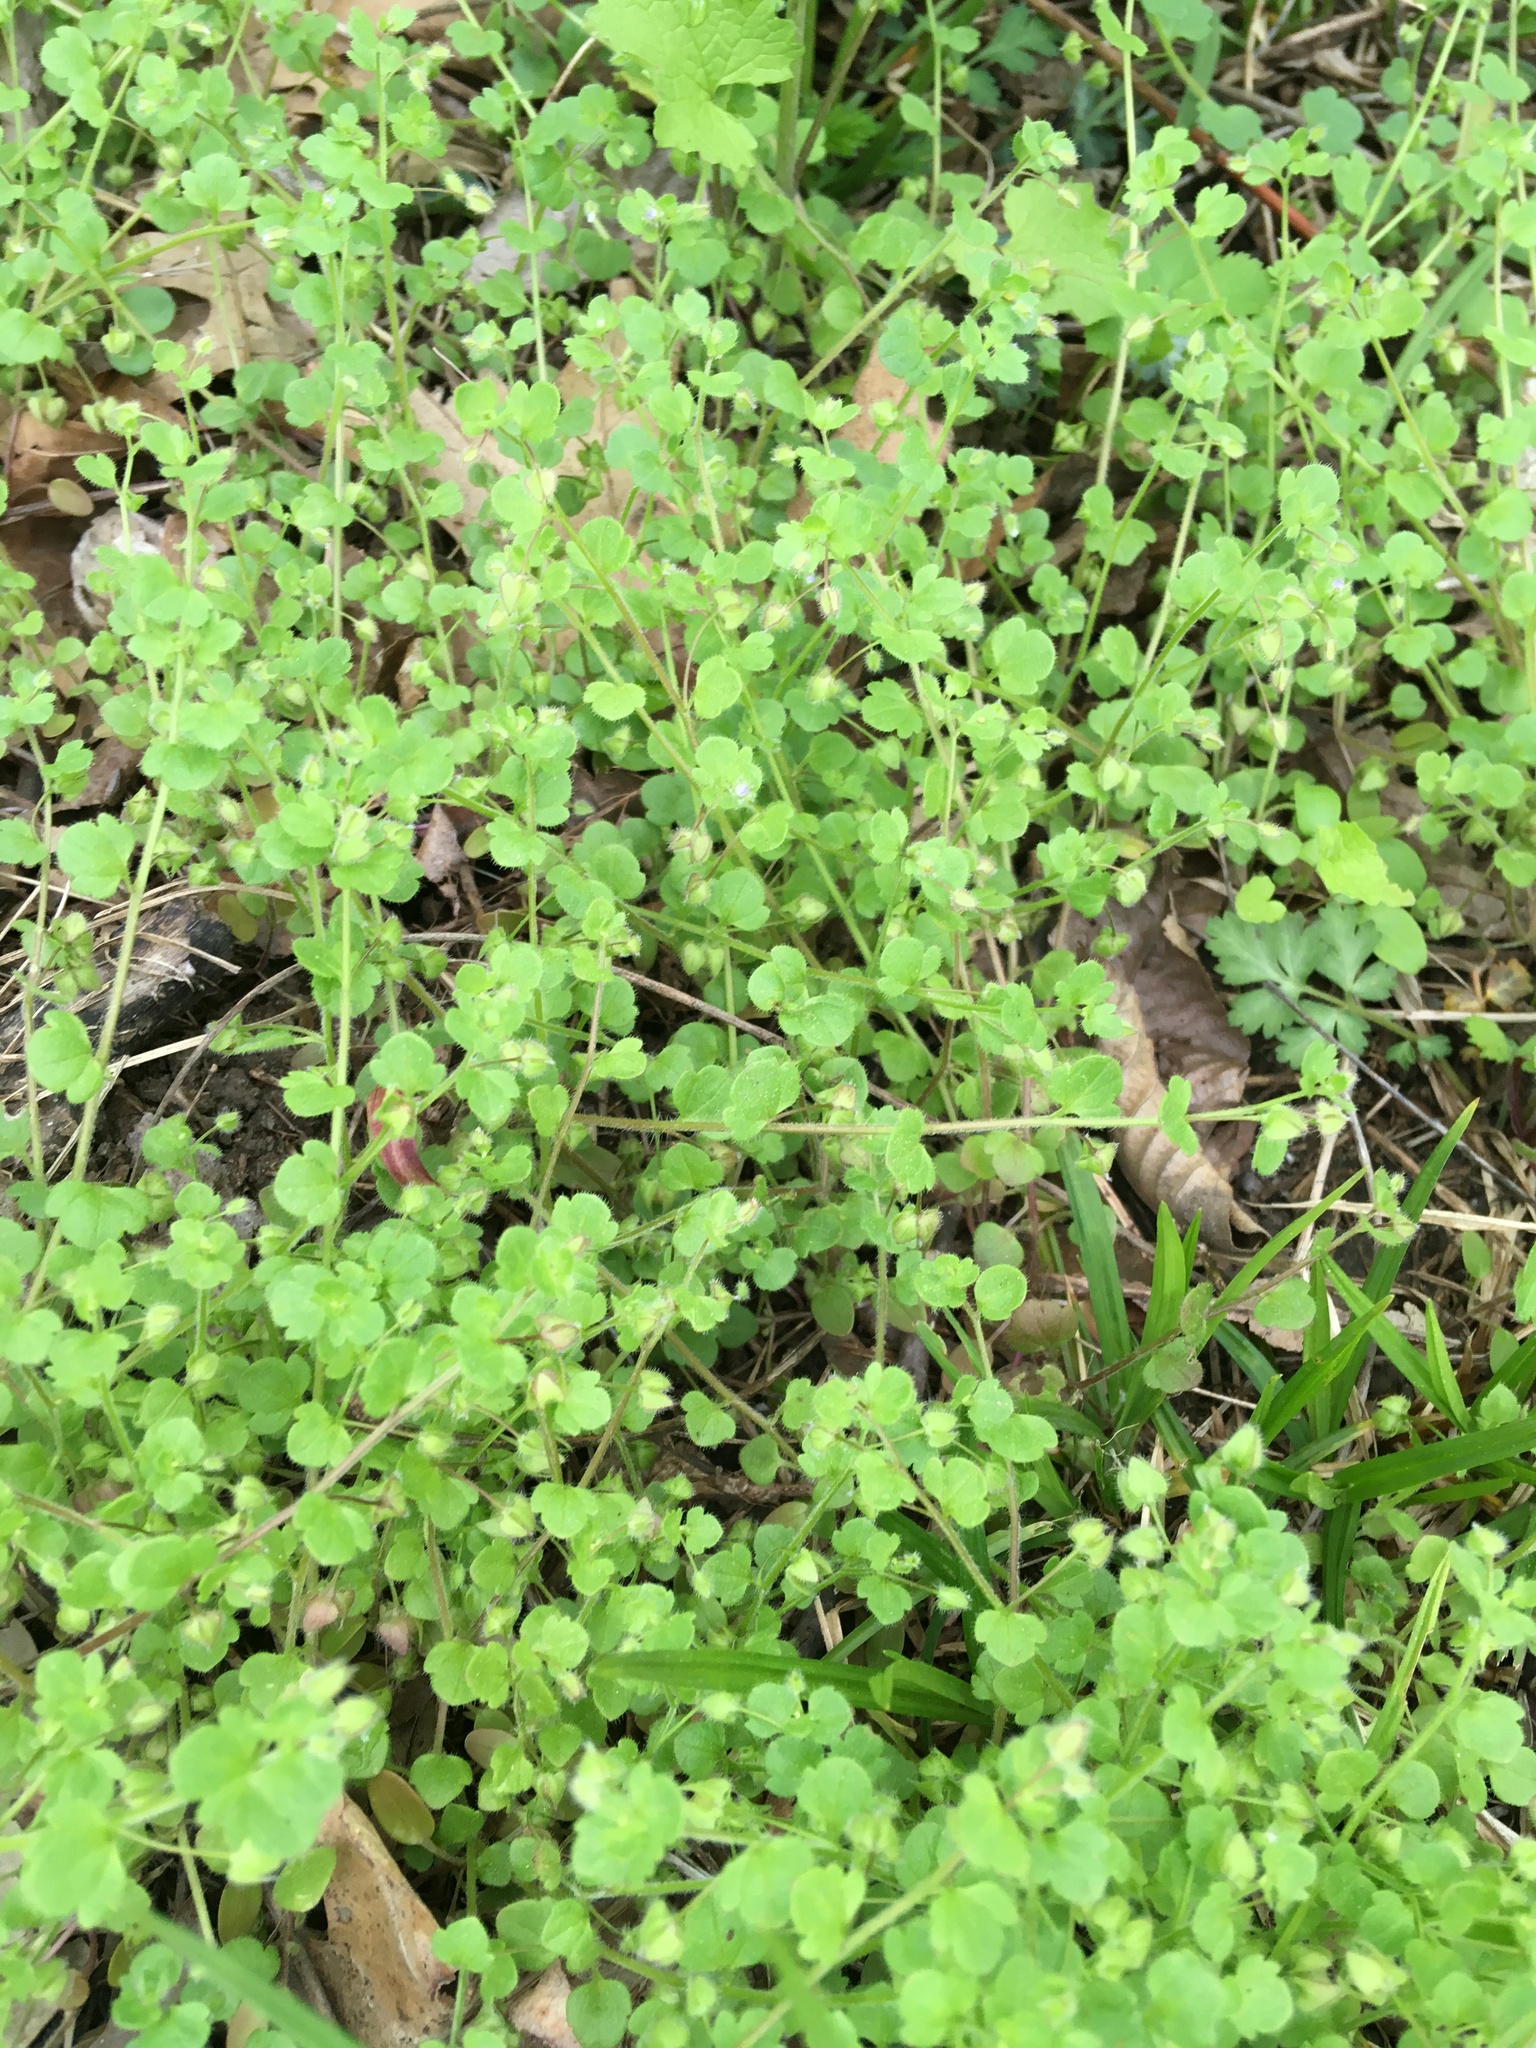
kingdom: Plantae
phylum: Tracheophyta
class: Magnoliopsida
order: Lamiales
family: Plantaginaceae
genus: Veronica
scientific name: Veronica hederifolia
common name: Ivy-leaved speedwell
